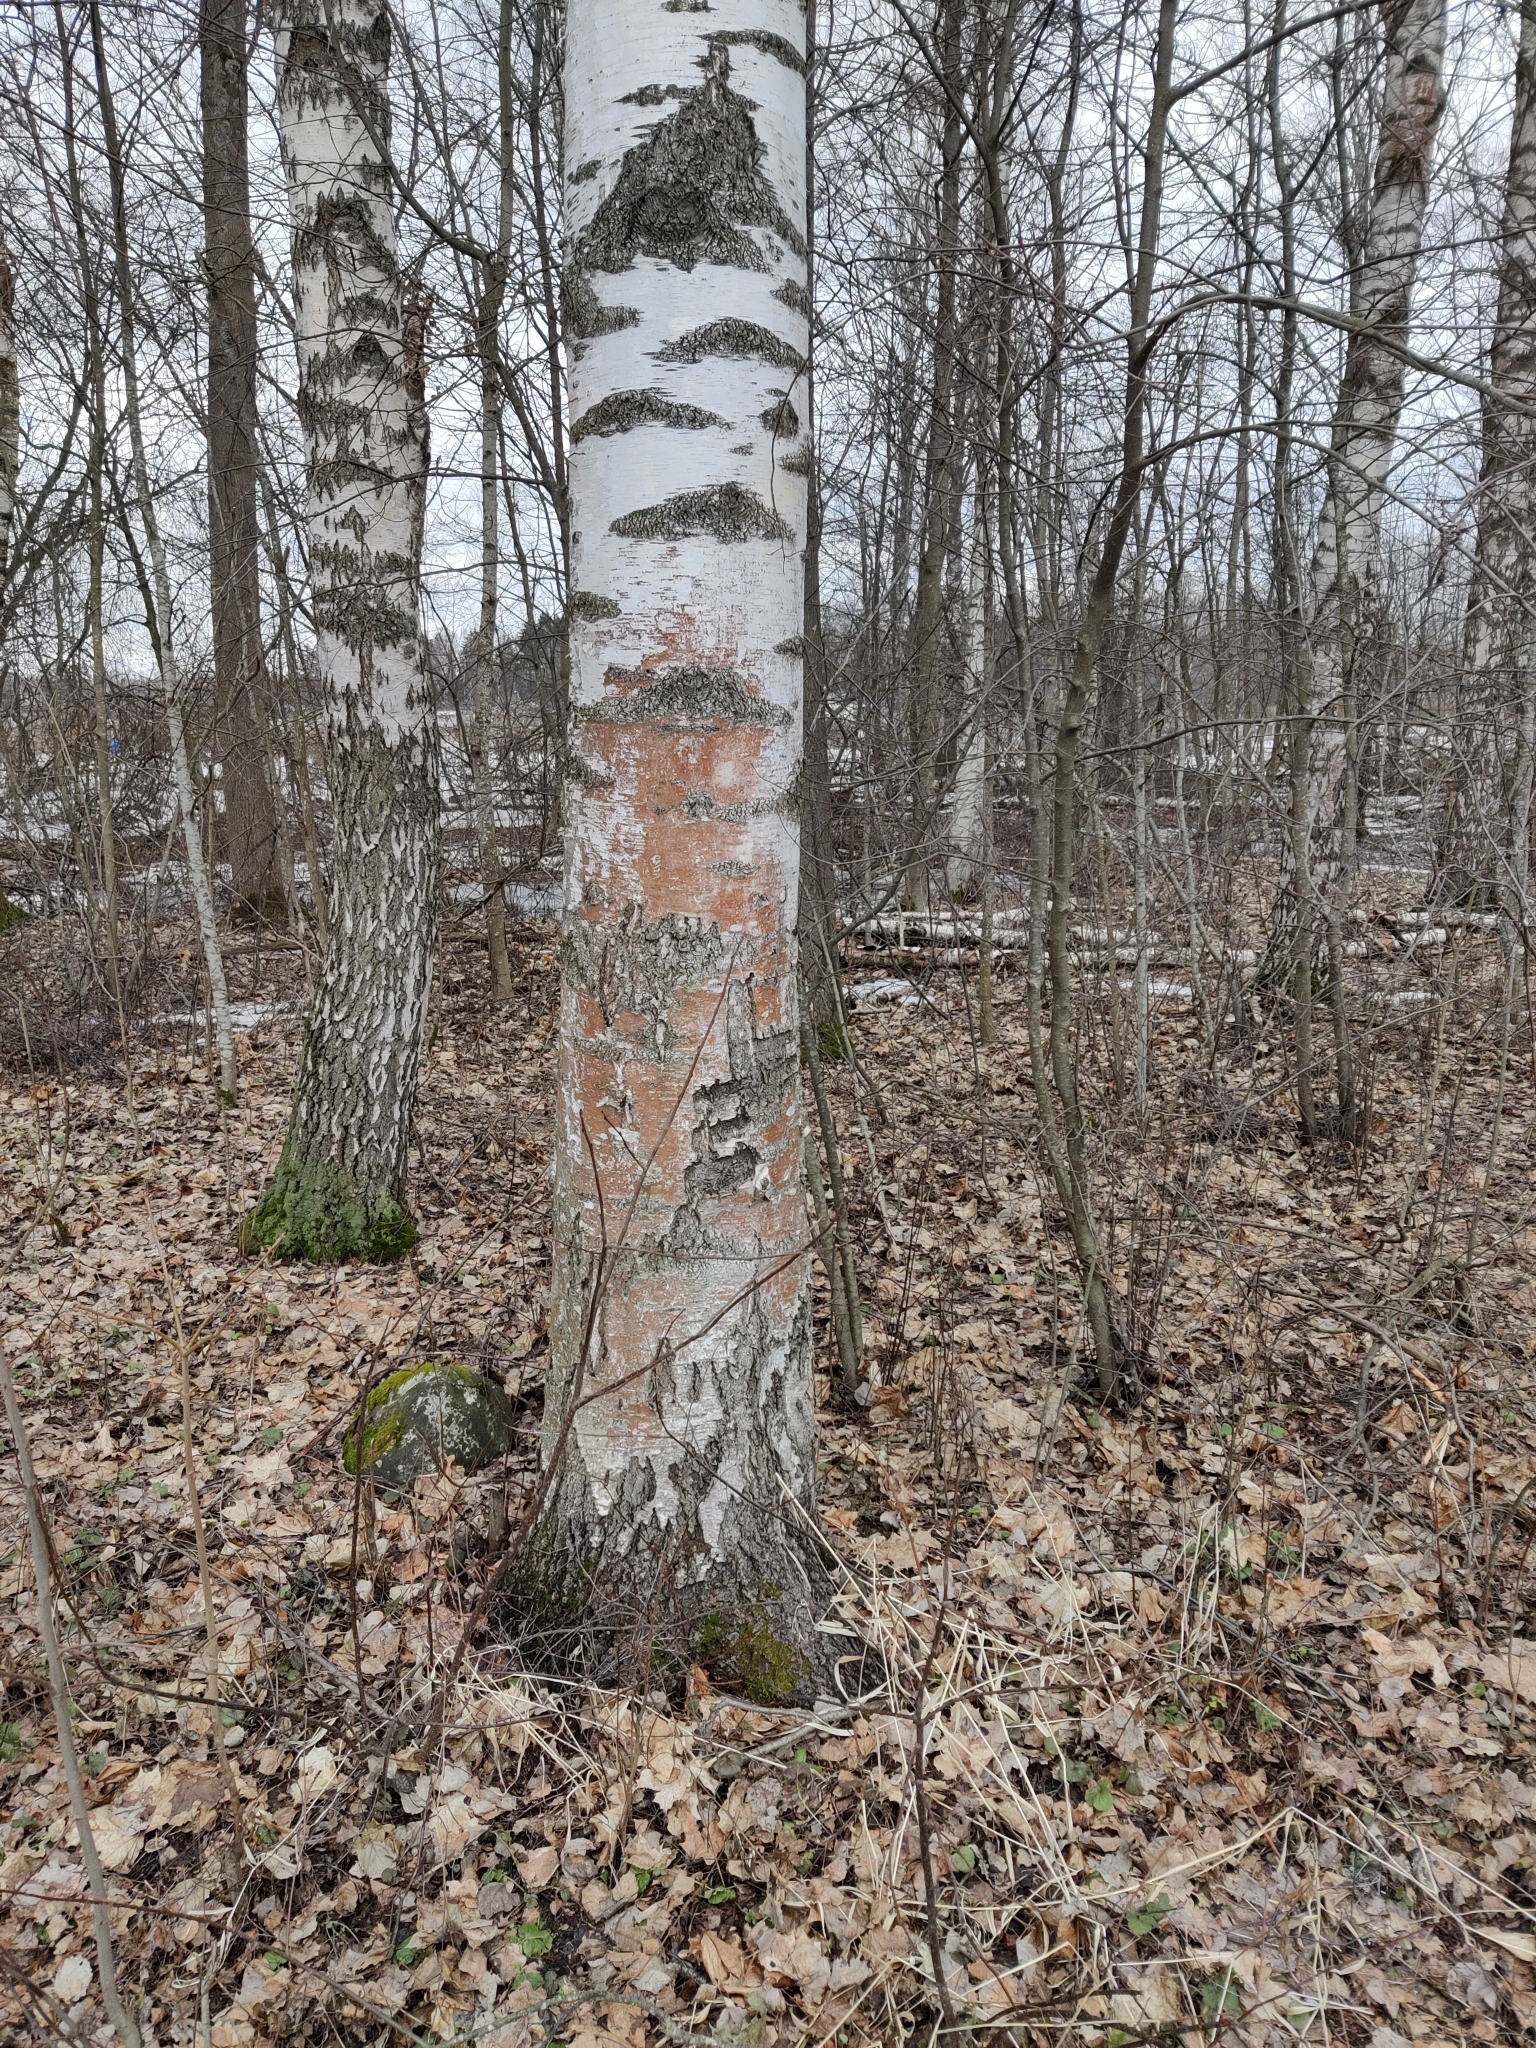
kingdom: Plantae
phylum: Chlorophyta
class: Ulvophyceae
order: Trentepohliales
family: Trentepohliaceae
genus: Trentepohlia
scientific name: Trentepohlia
